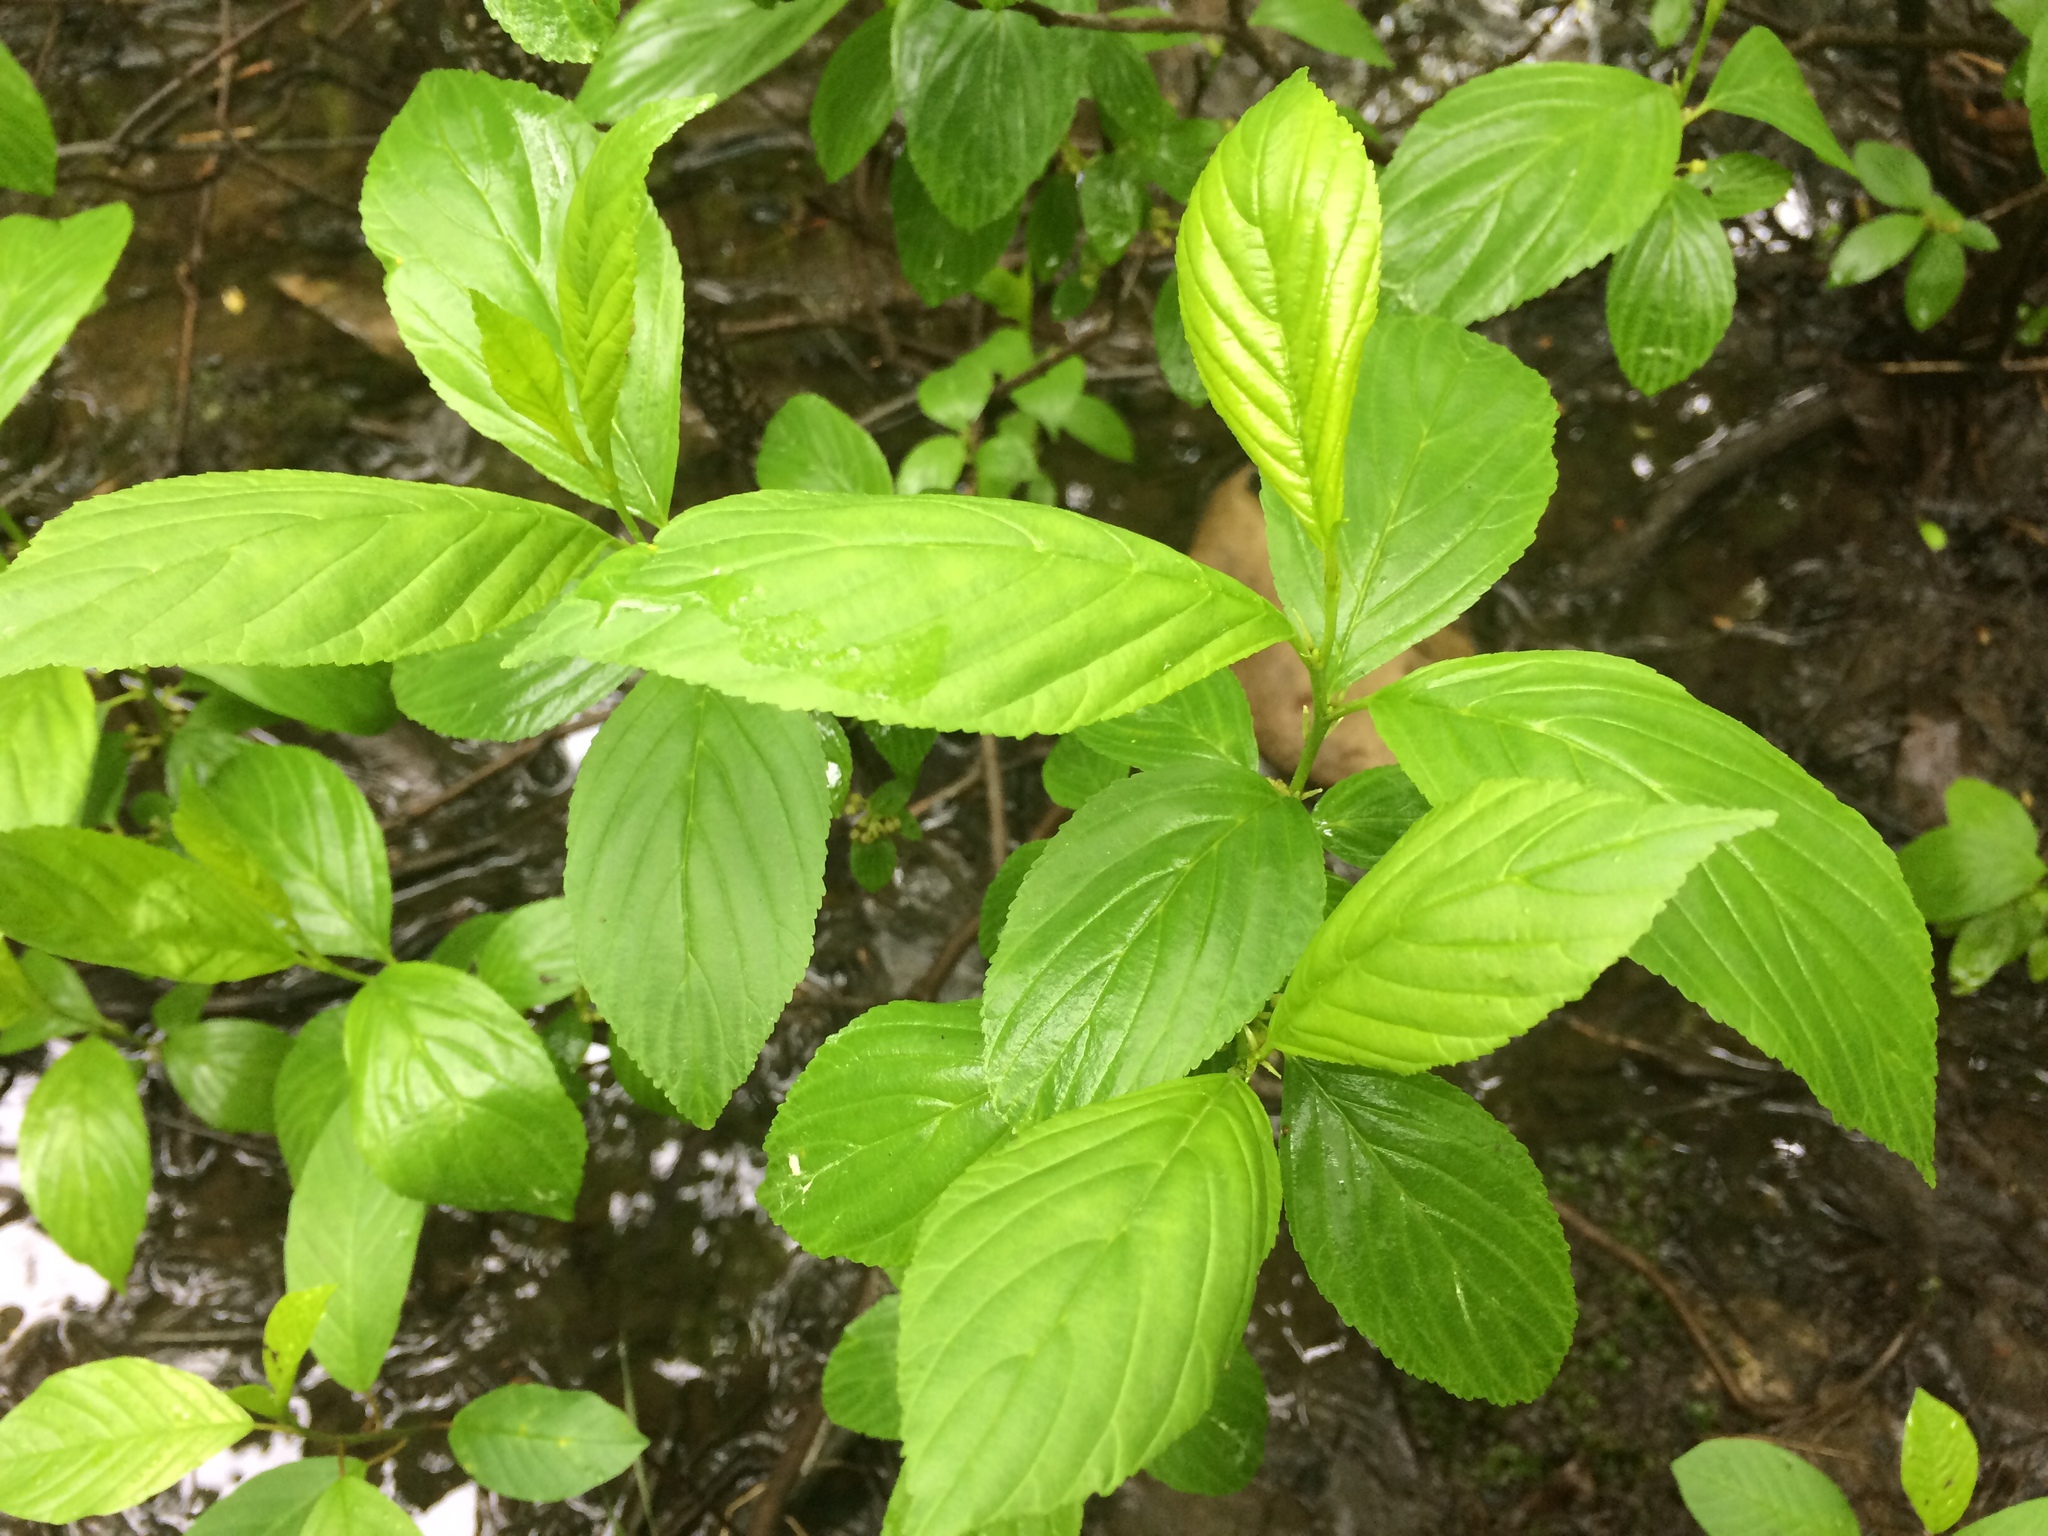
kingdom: Plantae
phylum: Tracheophyta
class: Magnoliopsida
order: Rosales
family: Rhamnaceae
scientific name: Rhamnaceae
